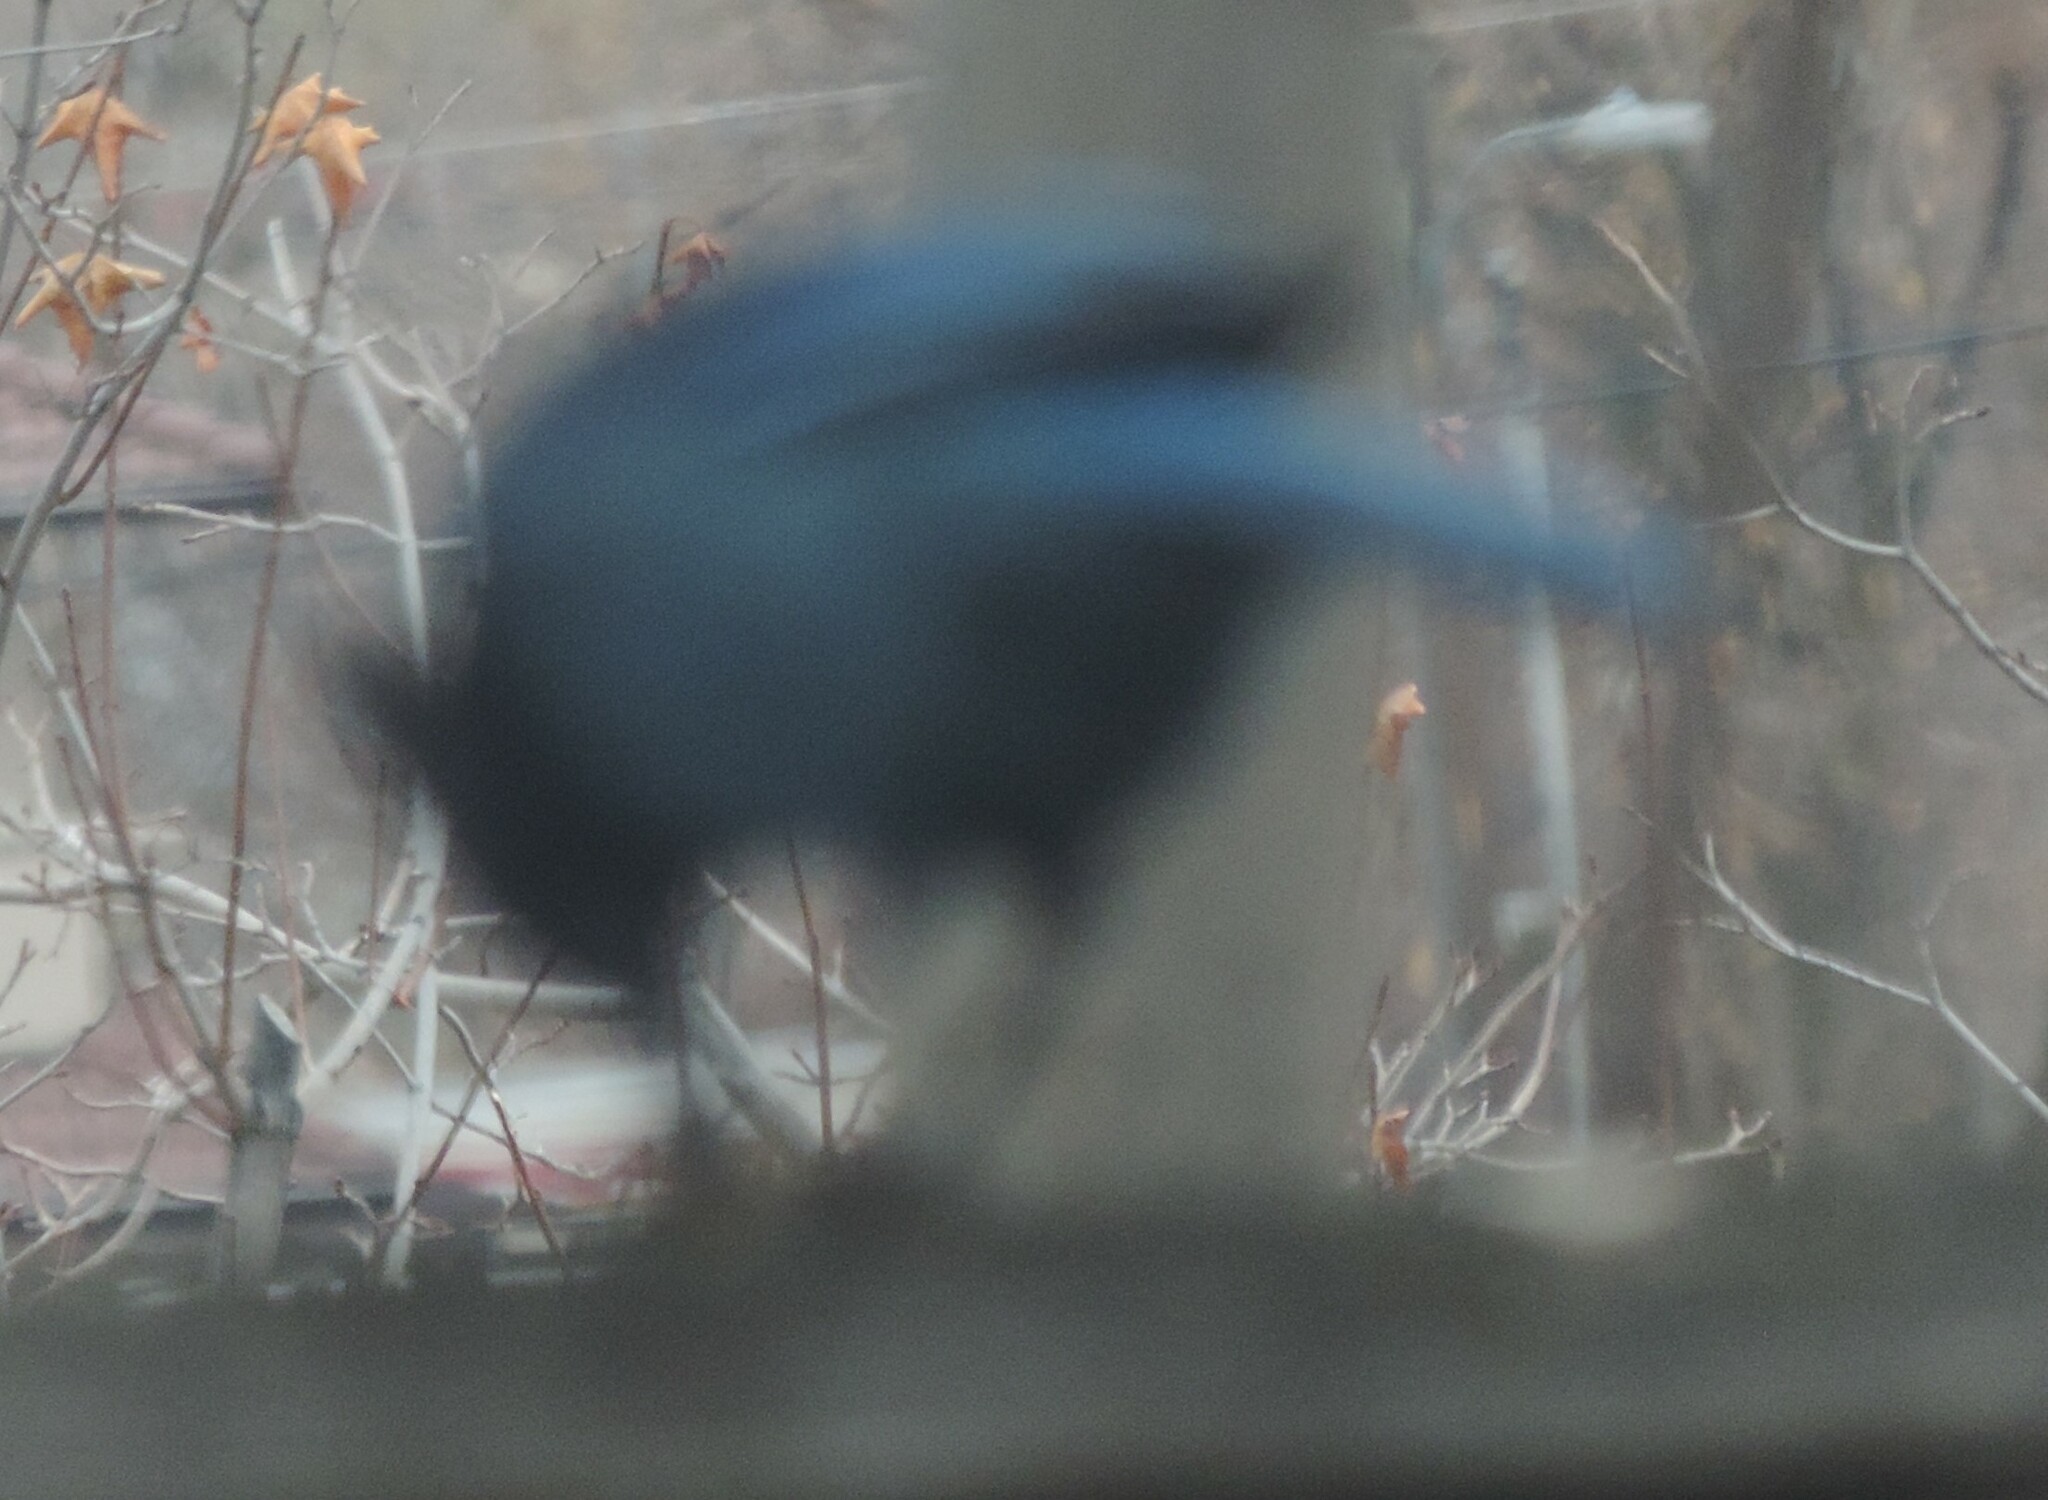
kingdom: Animalia
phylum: Chordata
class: Aves
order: Passeriformes
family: Corvidae
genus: Cyanocitta
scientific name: Cyanocitta stelleri
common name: Steller's jay
